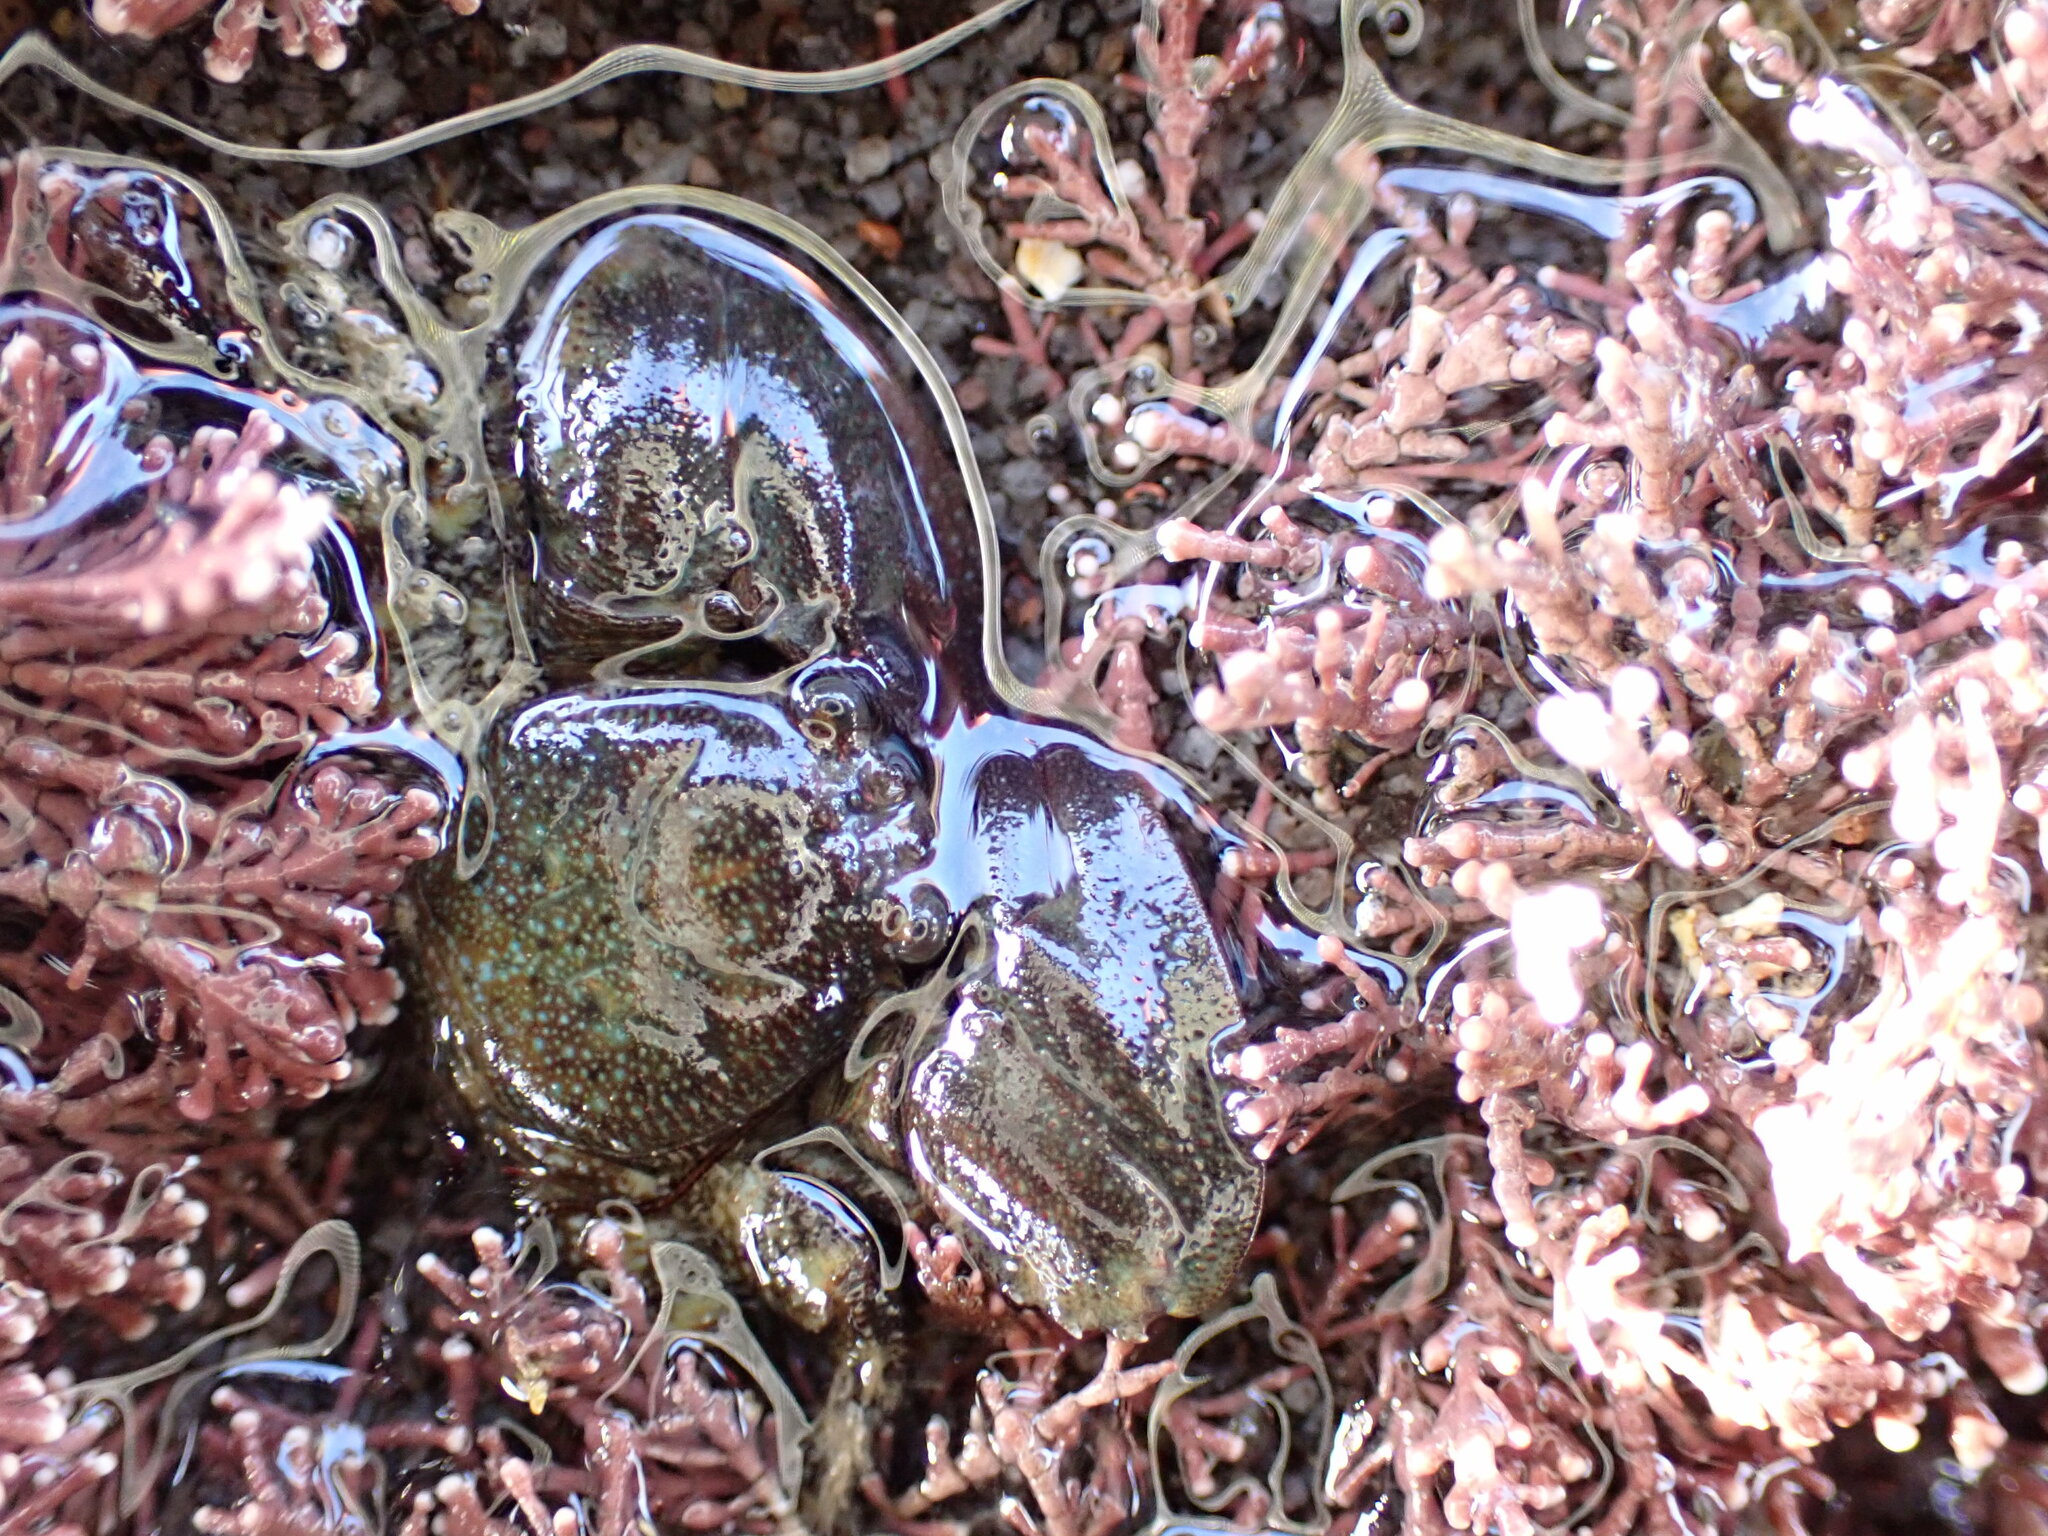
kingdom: Animalia
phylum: Arthropoda
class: Malacostraca
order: Decapoda
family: Porcellanidae
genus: Petrolisthes
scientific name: Petrolisthes elongatus
